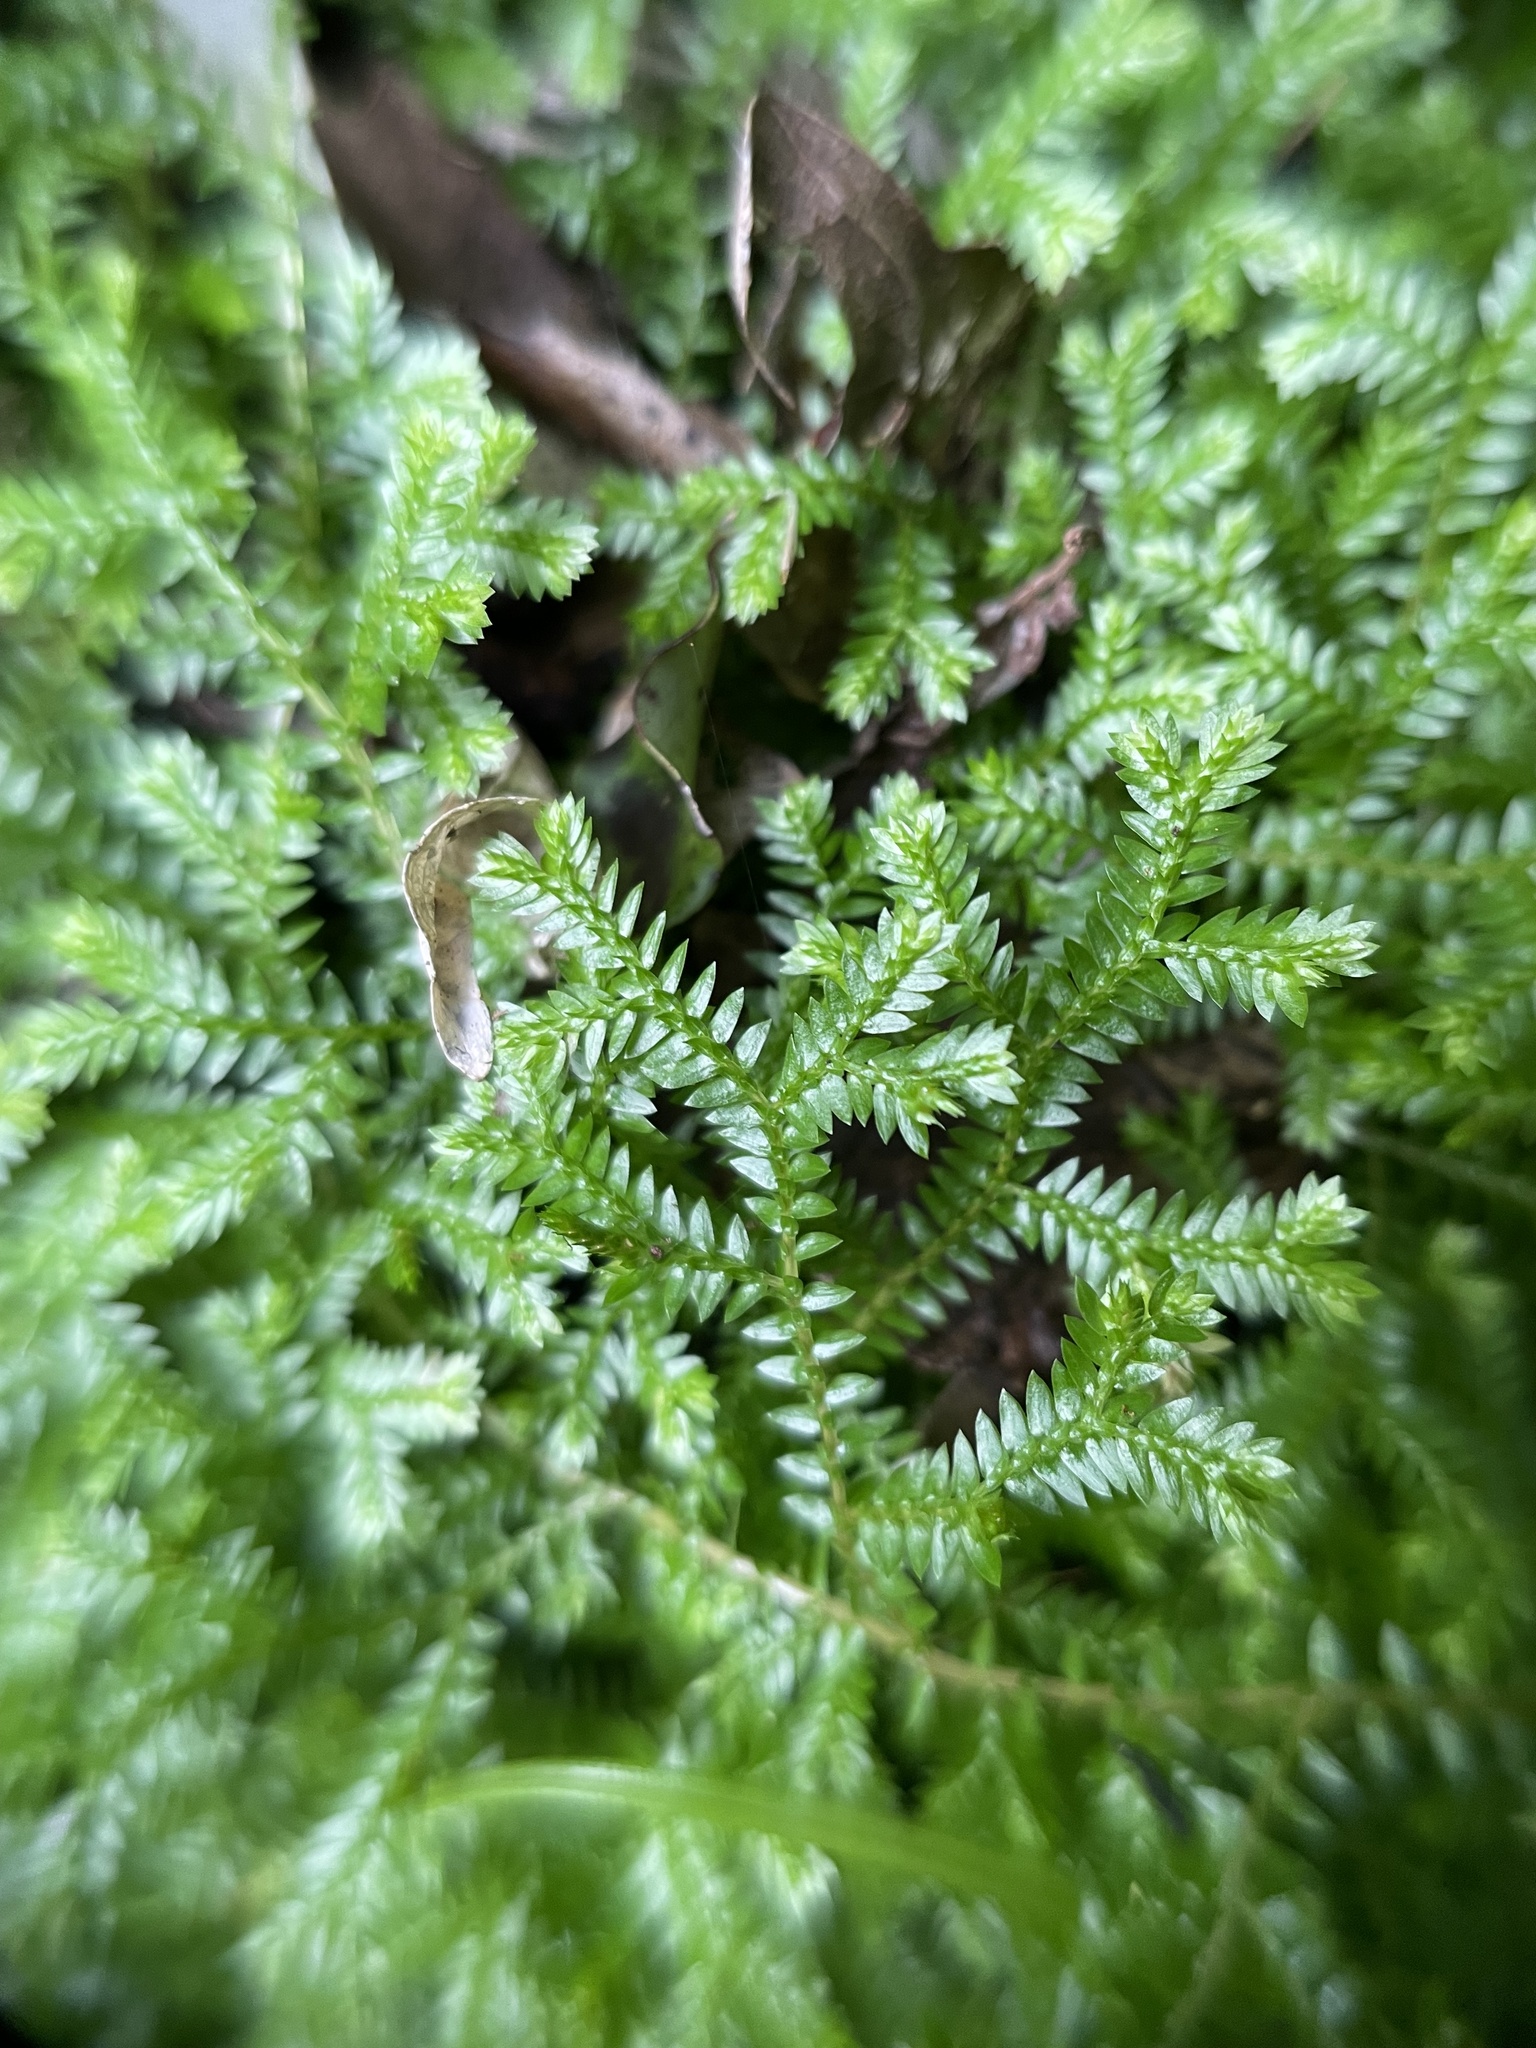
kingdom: Plantae
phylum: Tracheophyta
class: Lycopodiopsida
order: Selaginellales
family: Selaginellaceae
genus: Selaginella
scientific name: Selaginella kraussiana
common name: Krauss' spikemoss
